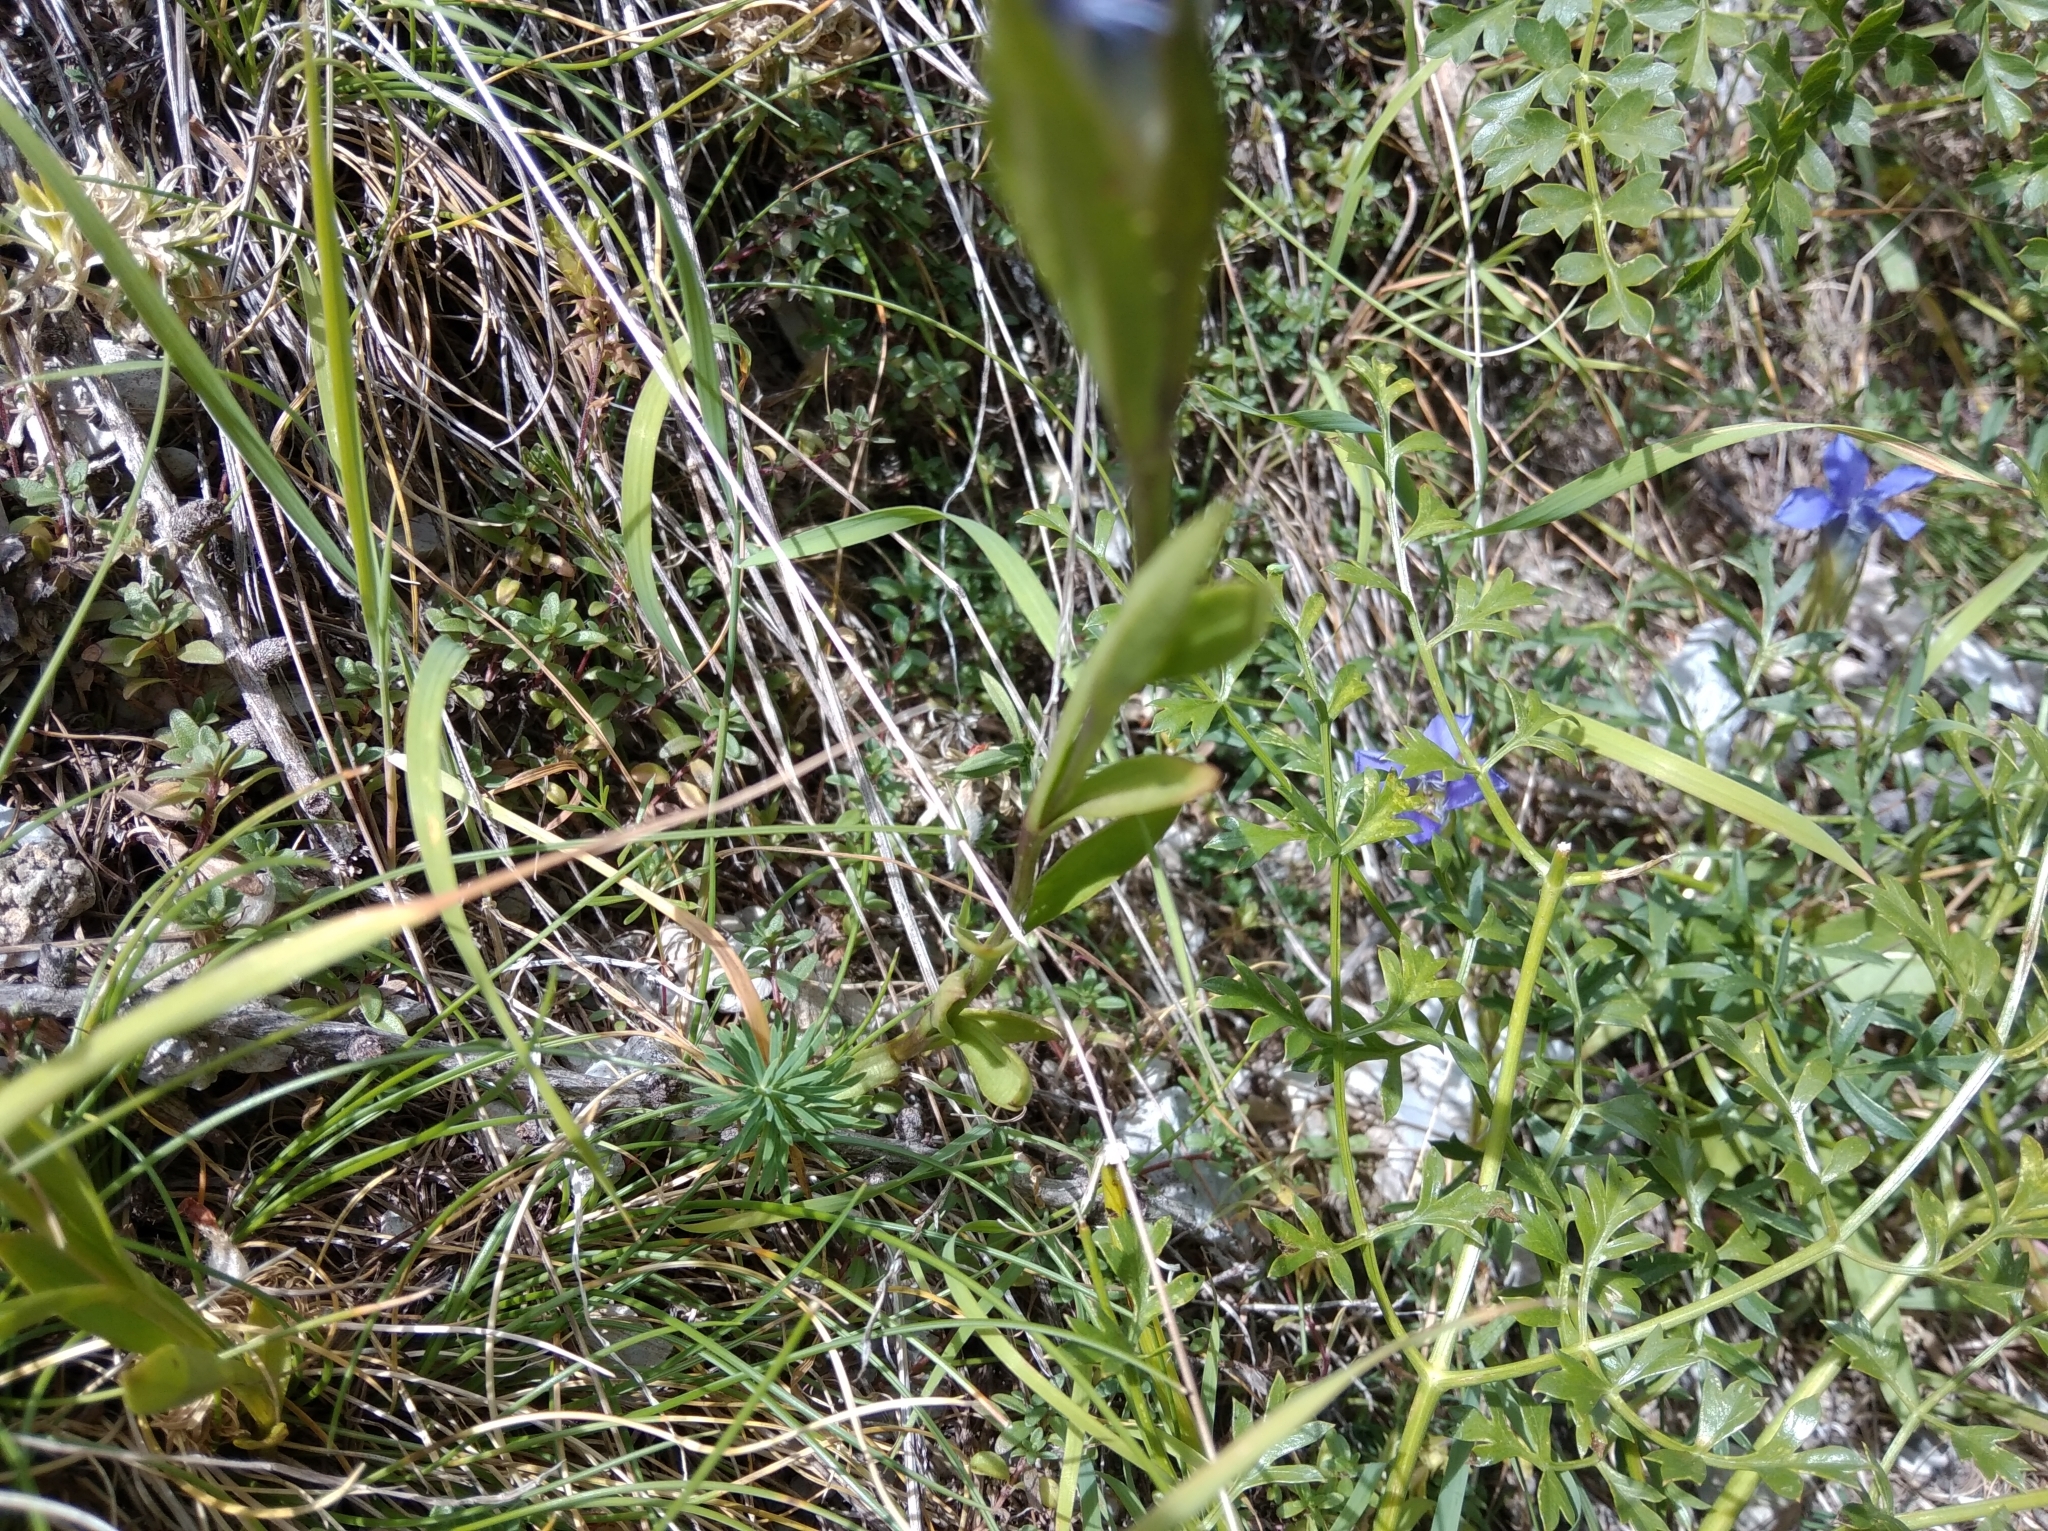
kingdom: Plantae
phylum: Tracheophyta
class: Magnoliopsida
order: Gentianales
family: Gentianaceae
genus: Gentianopsis
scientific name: Gentianopsis ciliata
